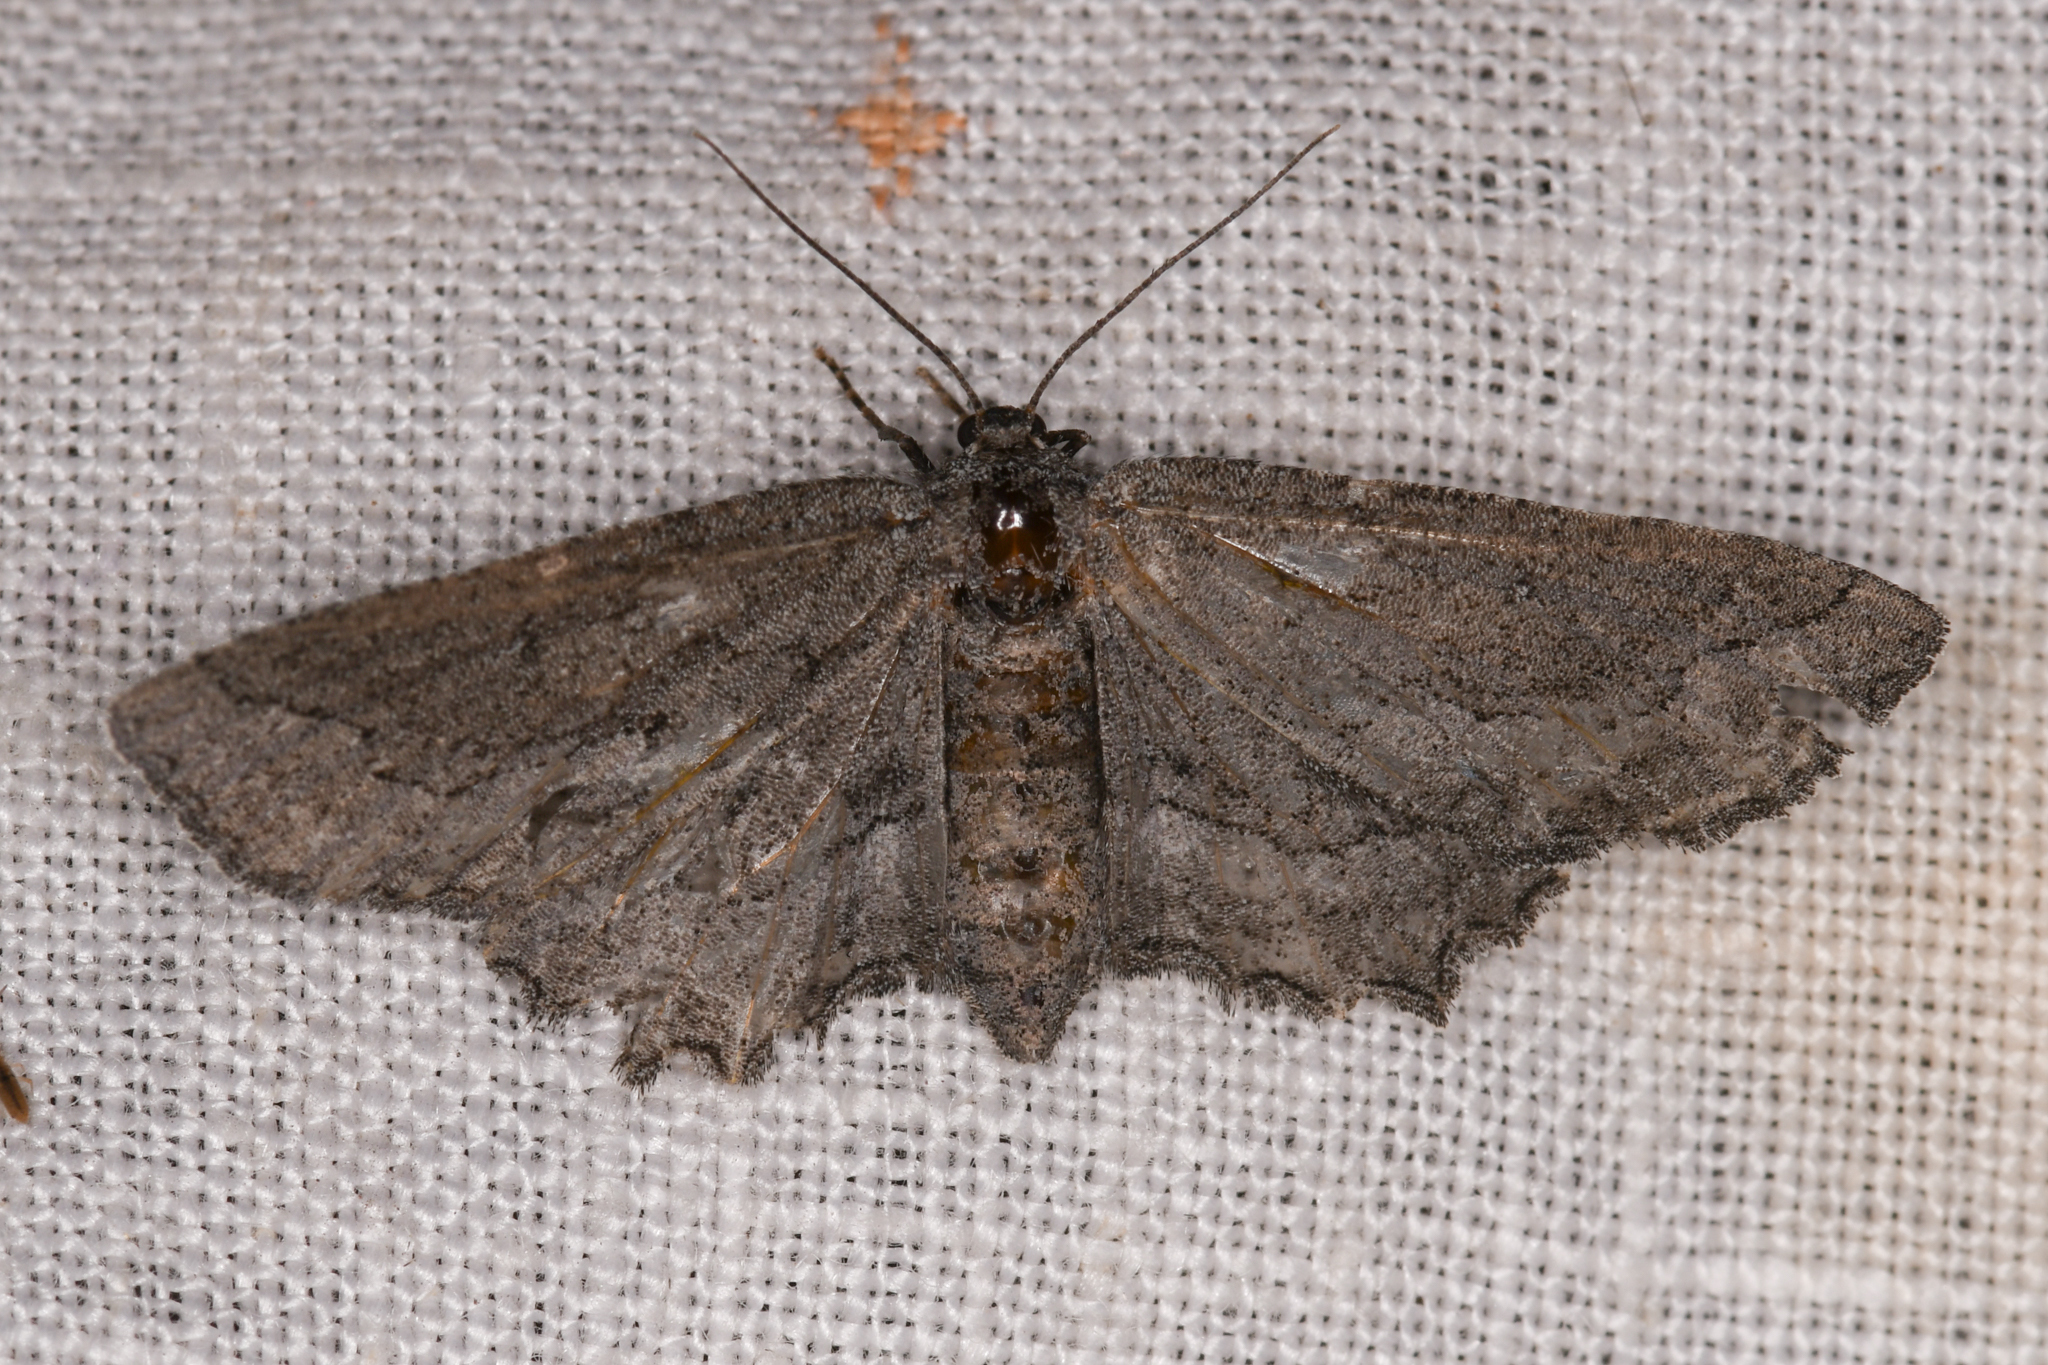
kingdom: Animalia
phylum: Arthropoda
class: Insecta
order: Lepidoptera
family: Geometridae
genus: Aethaloida
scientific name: Aethaloida packardaria
